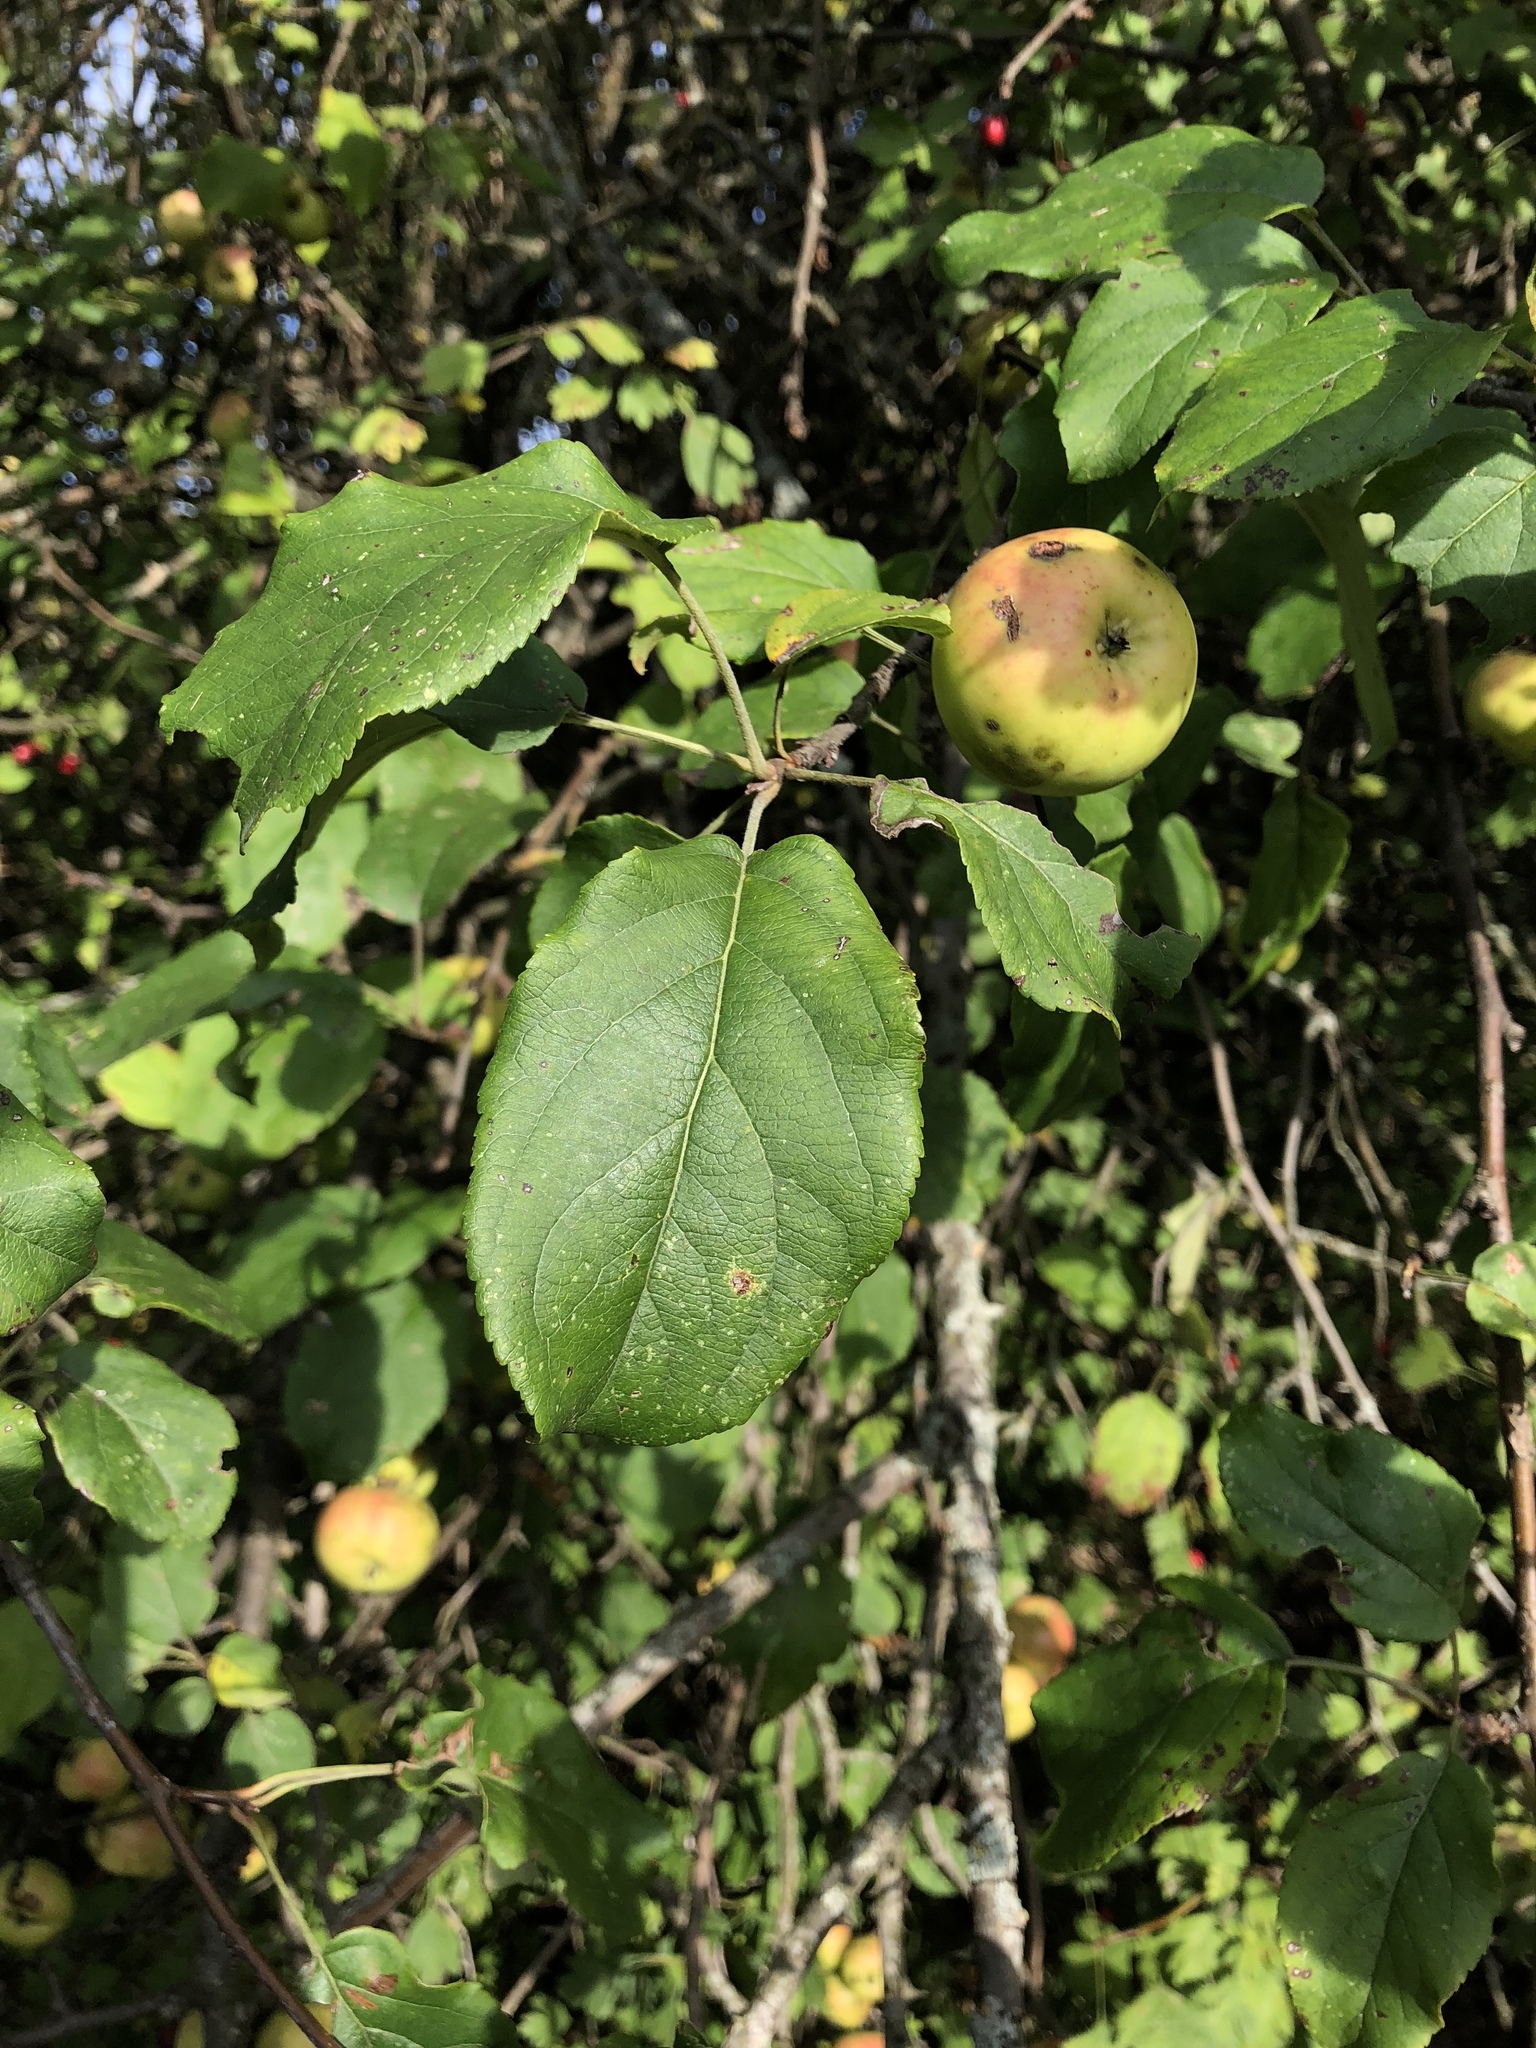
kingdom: Plantae
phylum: Tracheophyta
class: Magnoliopsida
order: Rosales
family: Rosaceae
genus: Malus
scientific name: Malus sylvestris
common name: Crab apple
